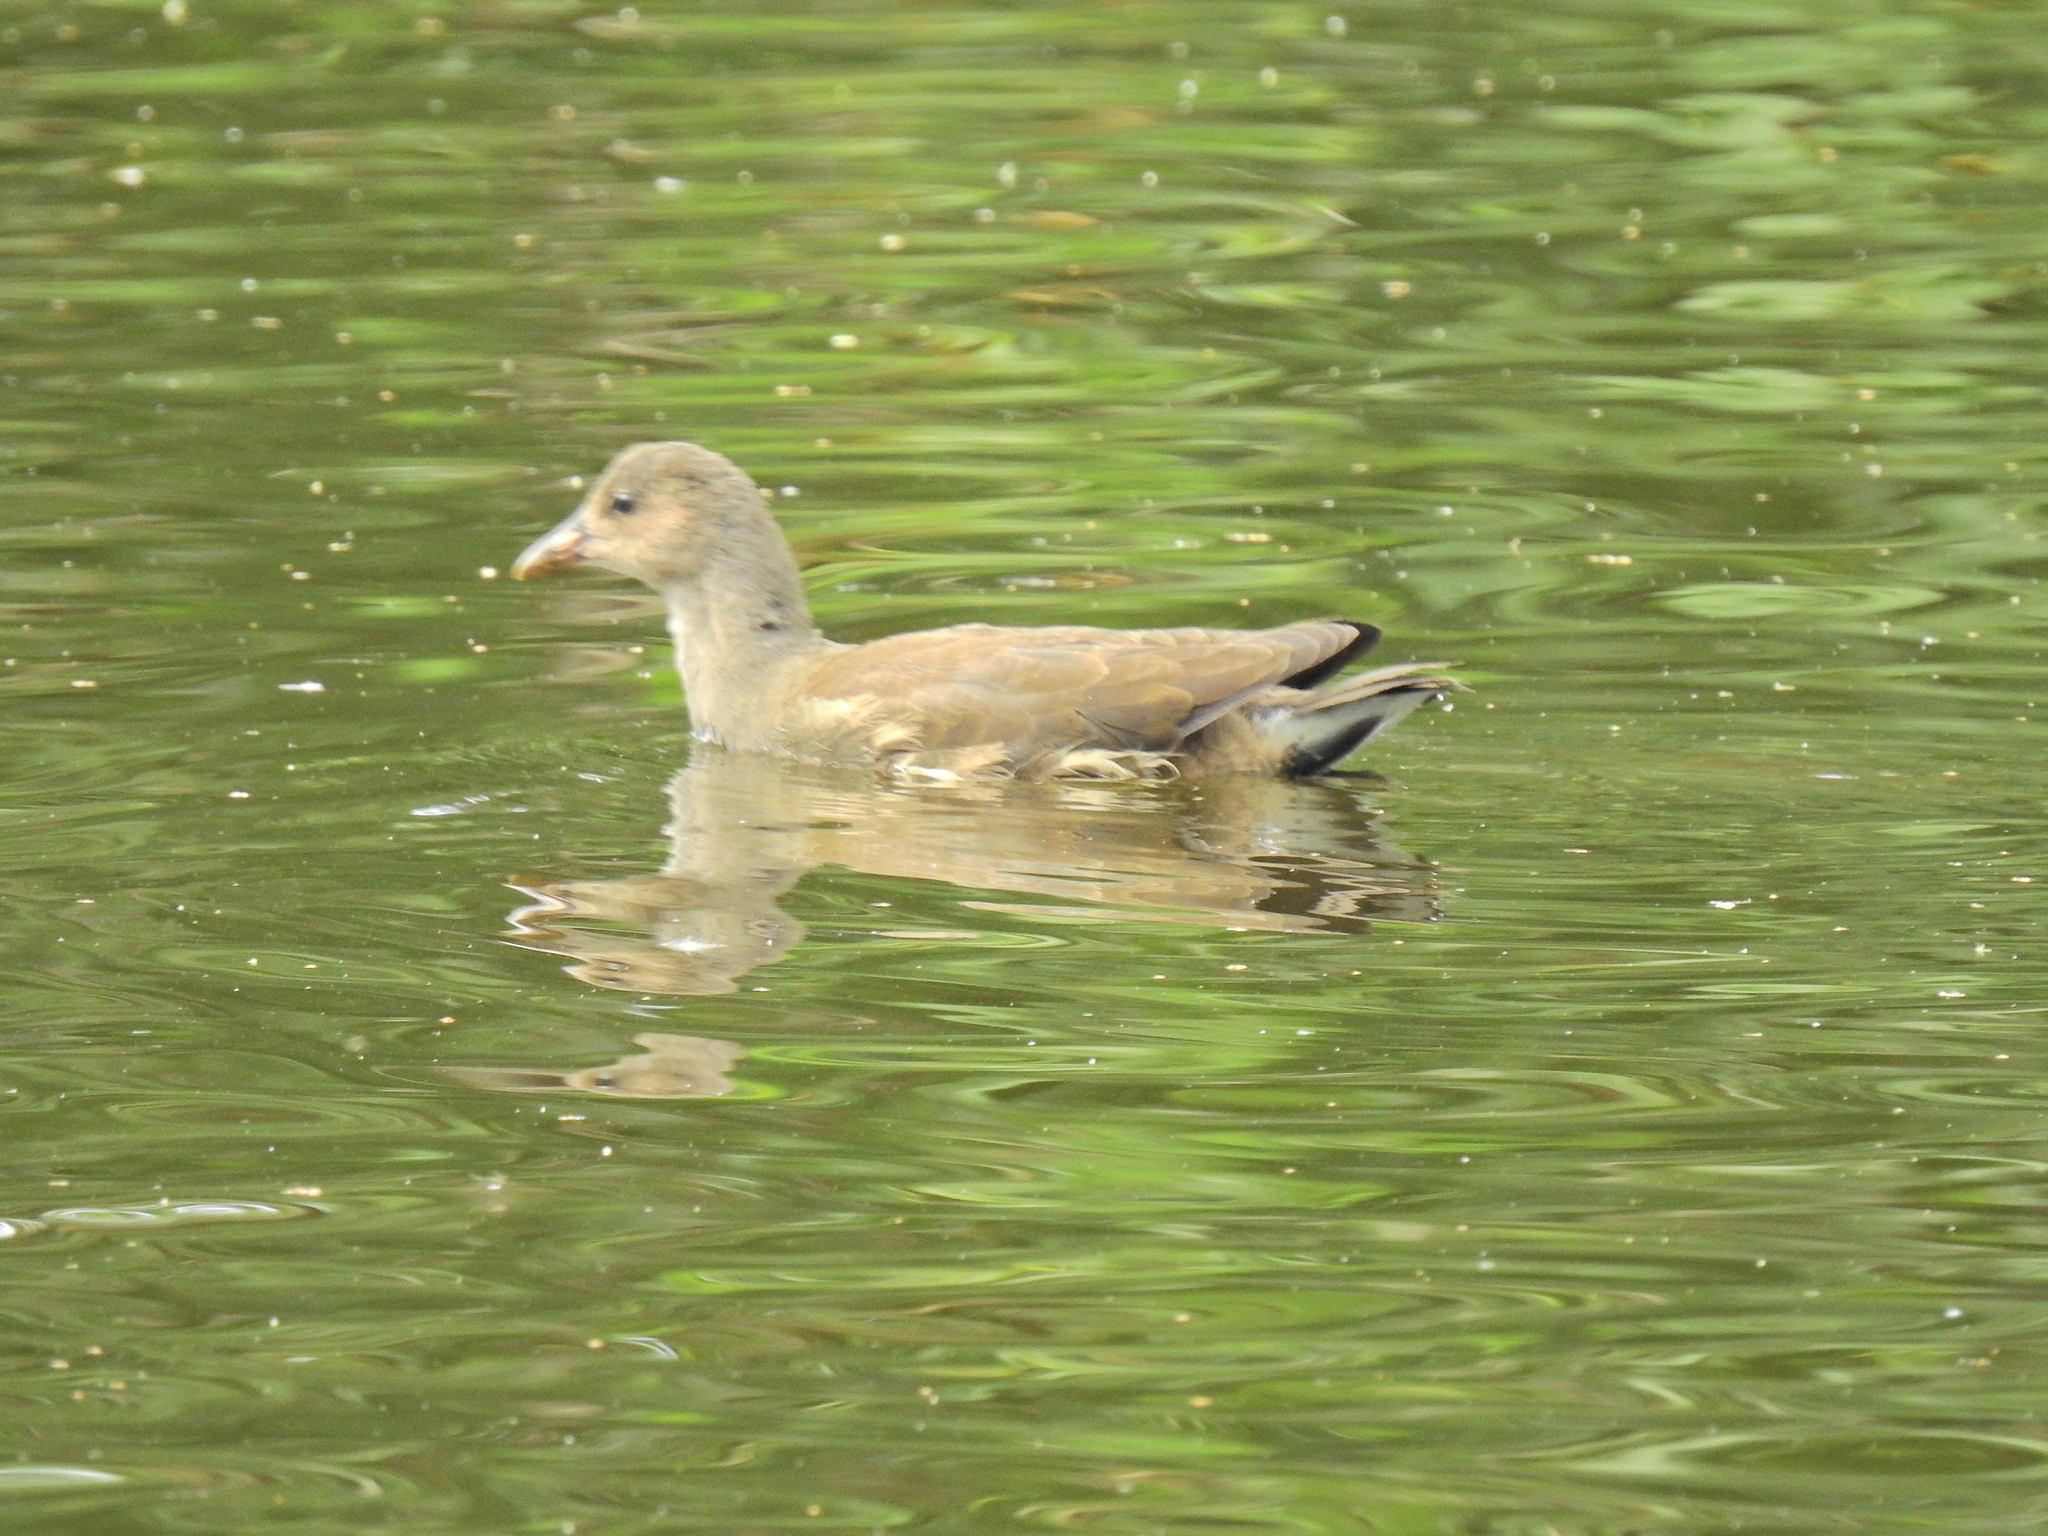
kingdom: Animalia
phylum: Chordata
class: Aves
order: Gruiformes
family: Rallidae
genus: Gallinula
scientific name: Gallinula chloropus
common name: Common moorhen
